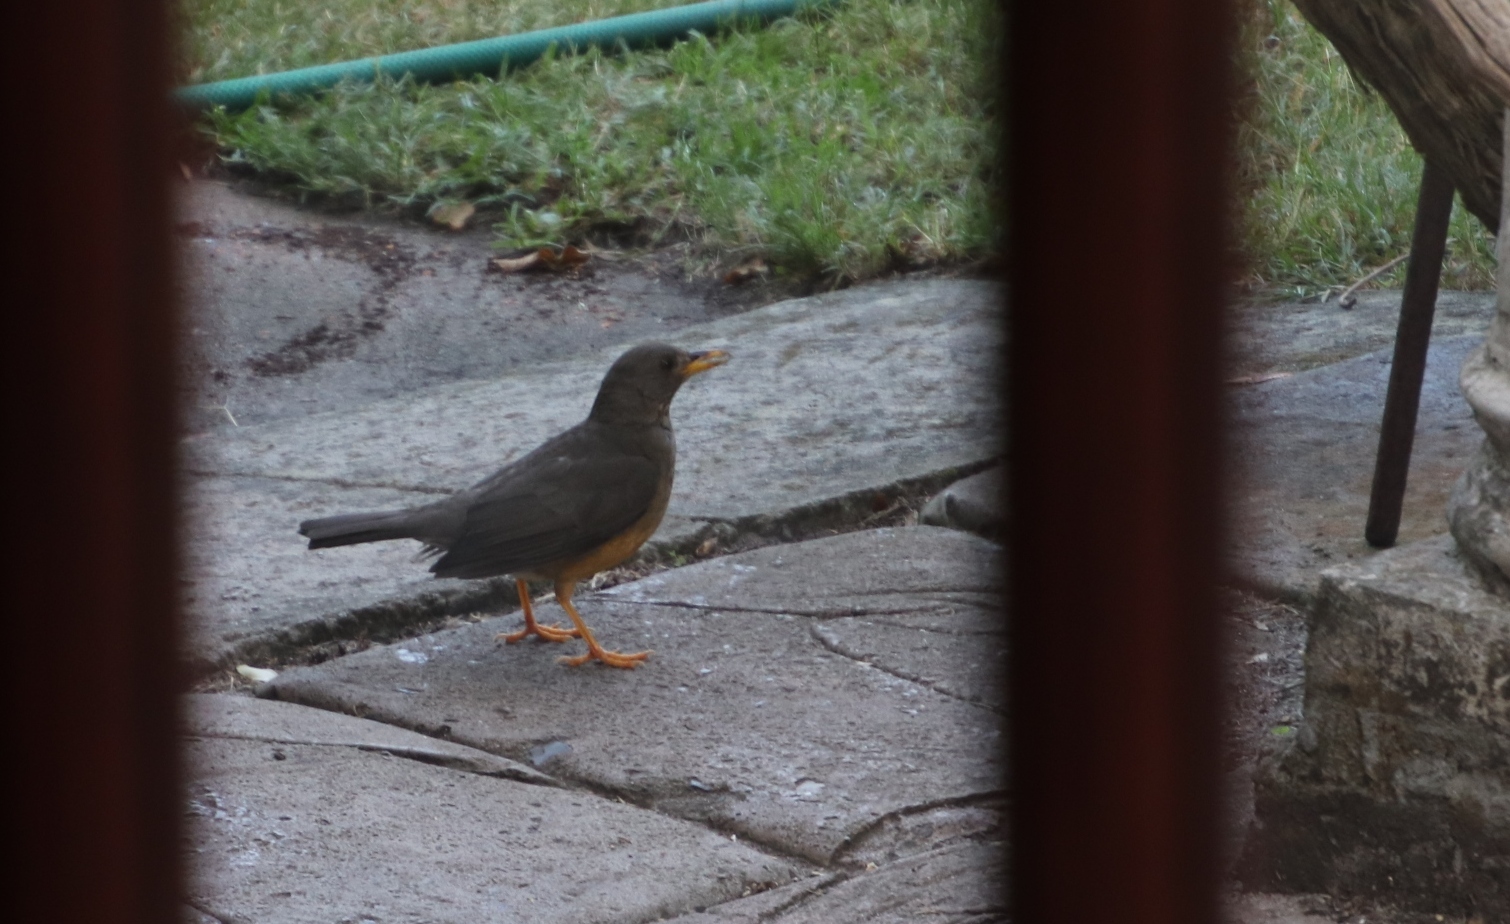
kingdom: Animalia
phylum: Chordata
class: Aves
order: Passeriformes
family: Turdidae
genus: Turdus
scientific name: Turdus olivaceus
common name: Olive thrush
